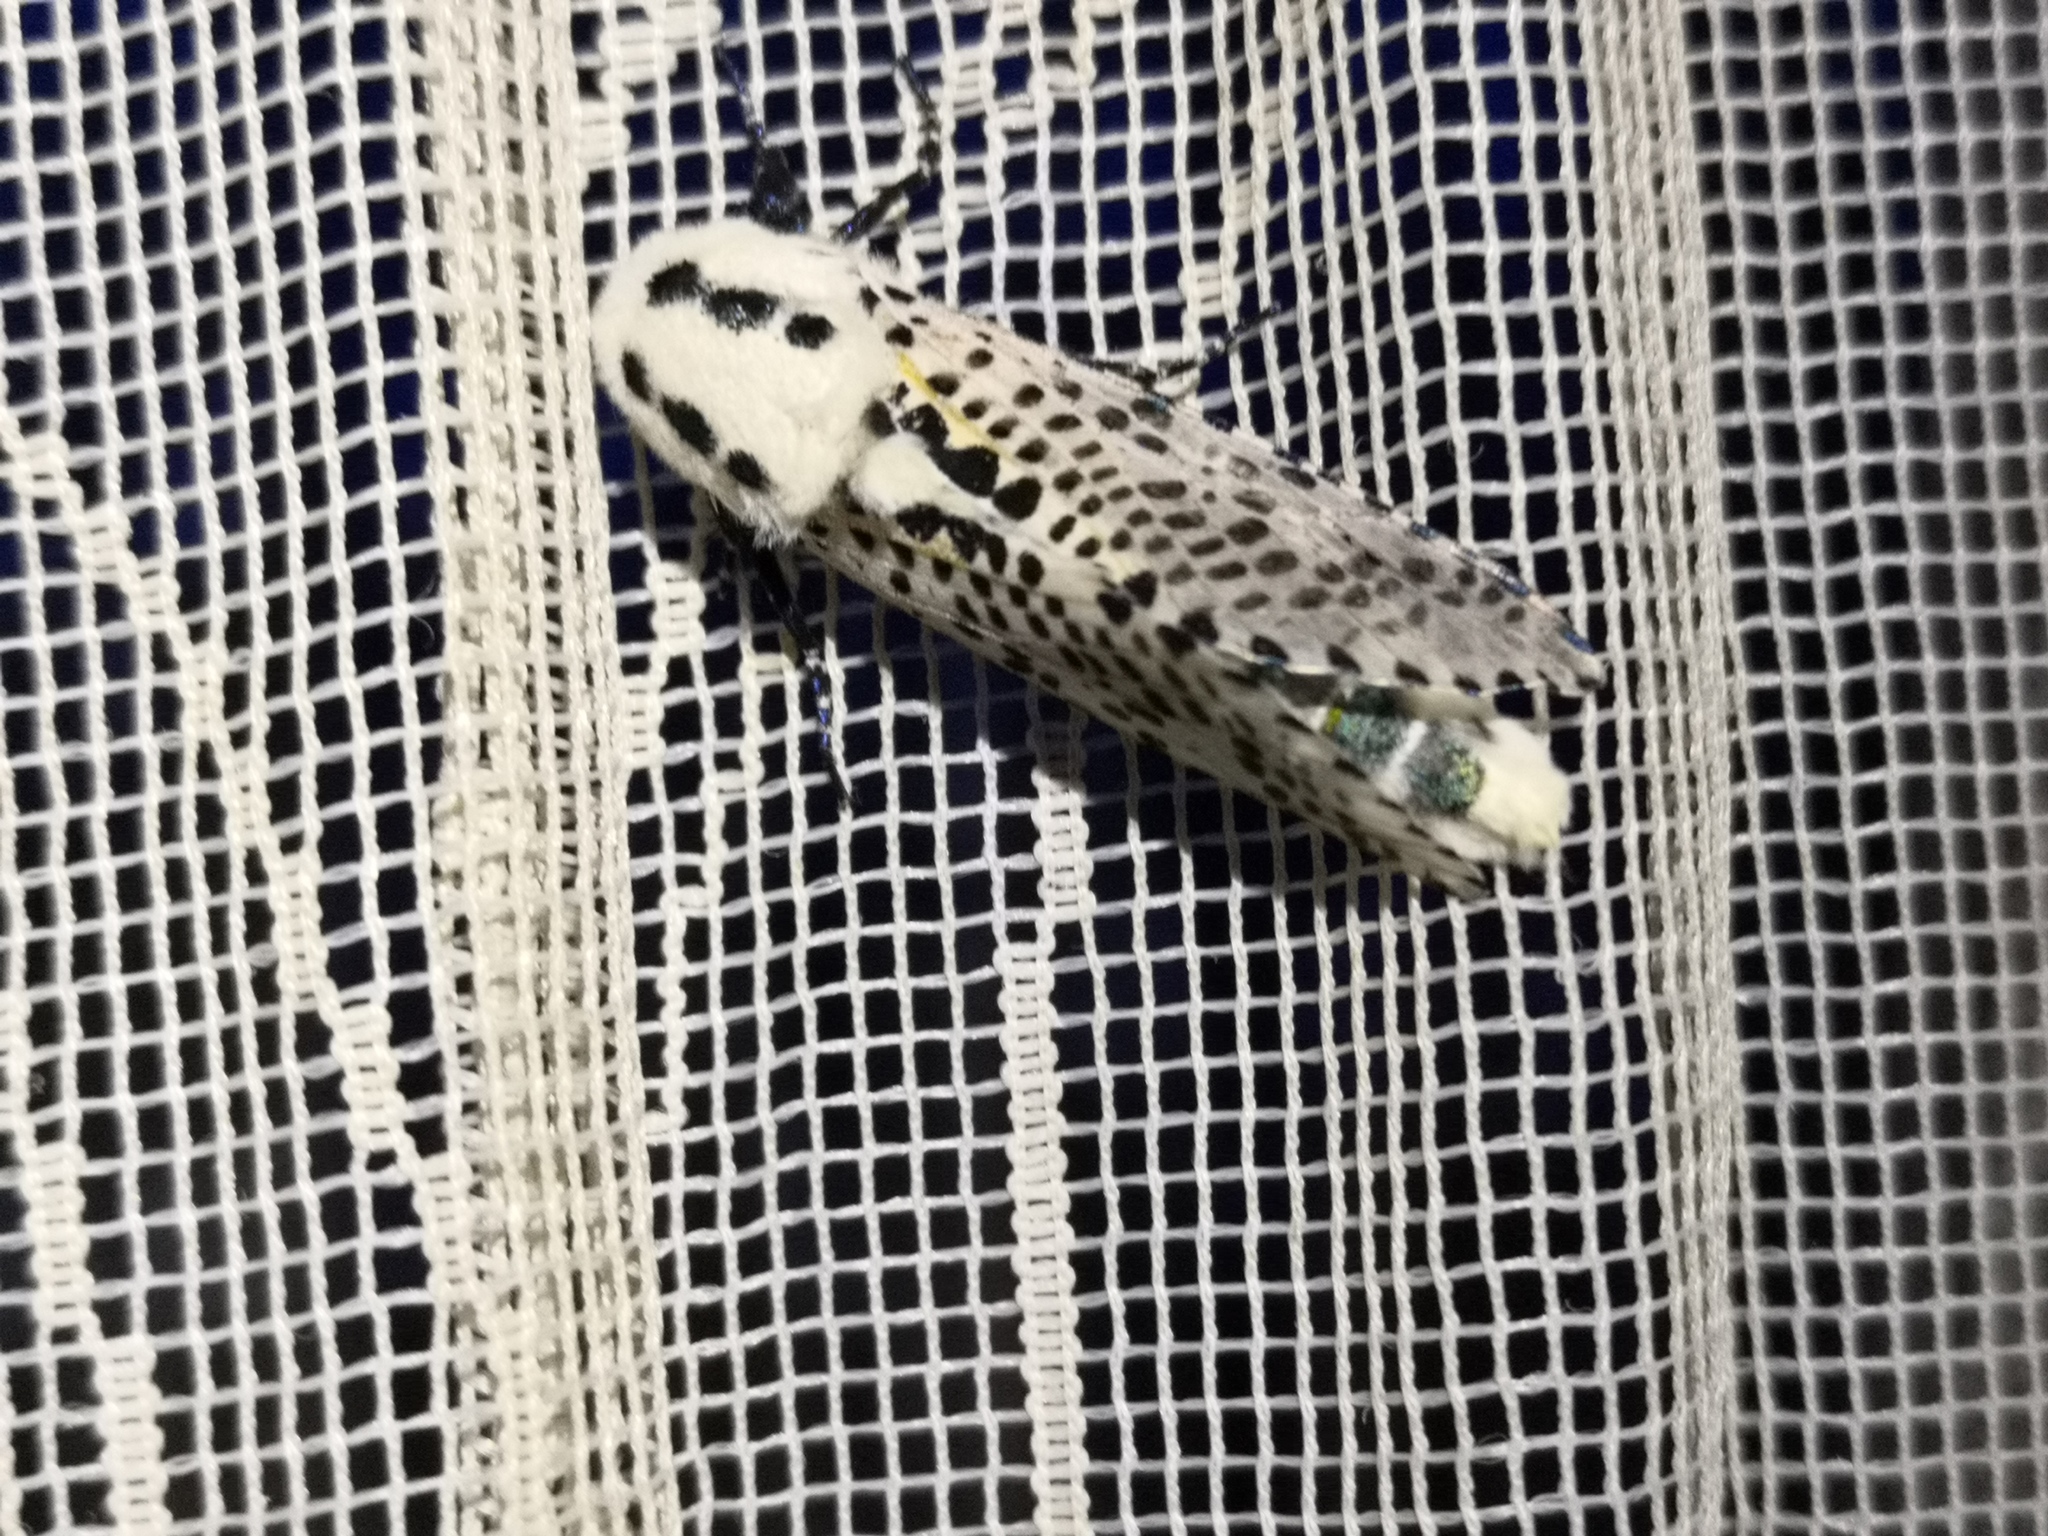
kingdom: Animalia
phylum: Arthropoda
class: Insecta
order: Lepidoptera
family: Cossidae
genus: Zeuzera
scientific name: Zeuzera pyrina
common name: Leopard moth
